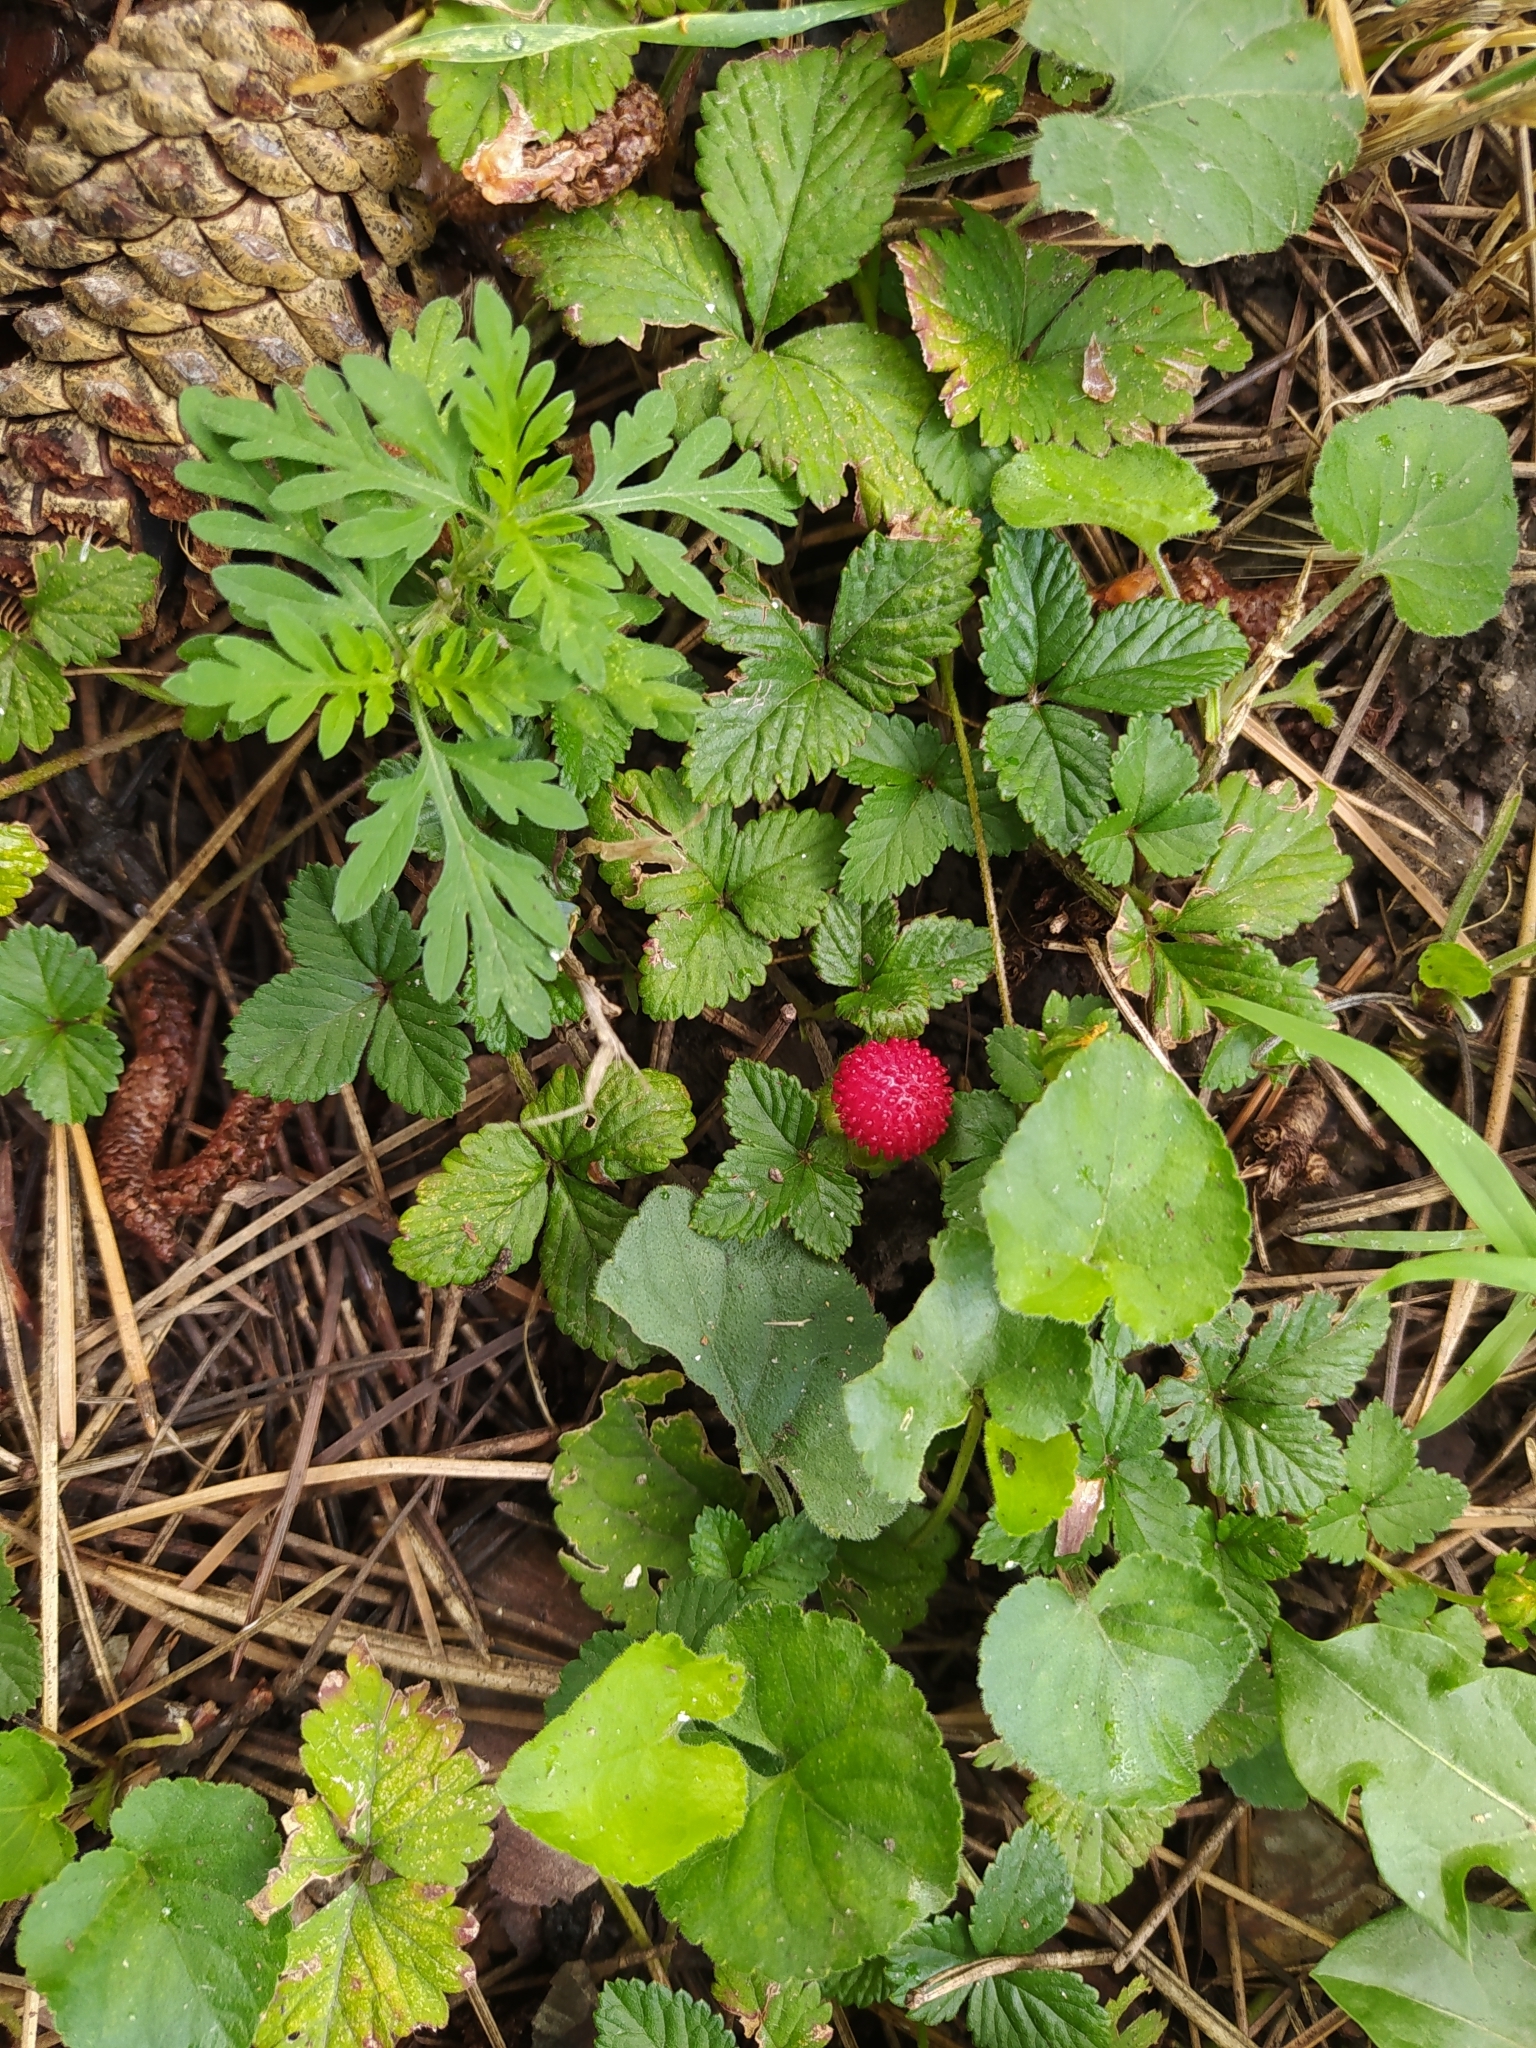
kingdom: Plantae
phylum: Tracheophyta
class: Magnoliopsida
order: Rosales
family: Rosaceae
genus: Potentilla
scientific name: Potentilla indica
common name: Yellow-flowered strawberry
